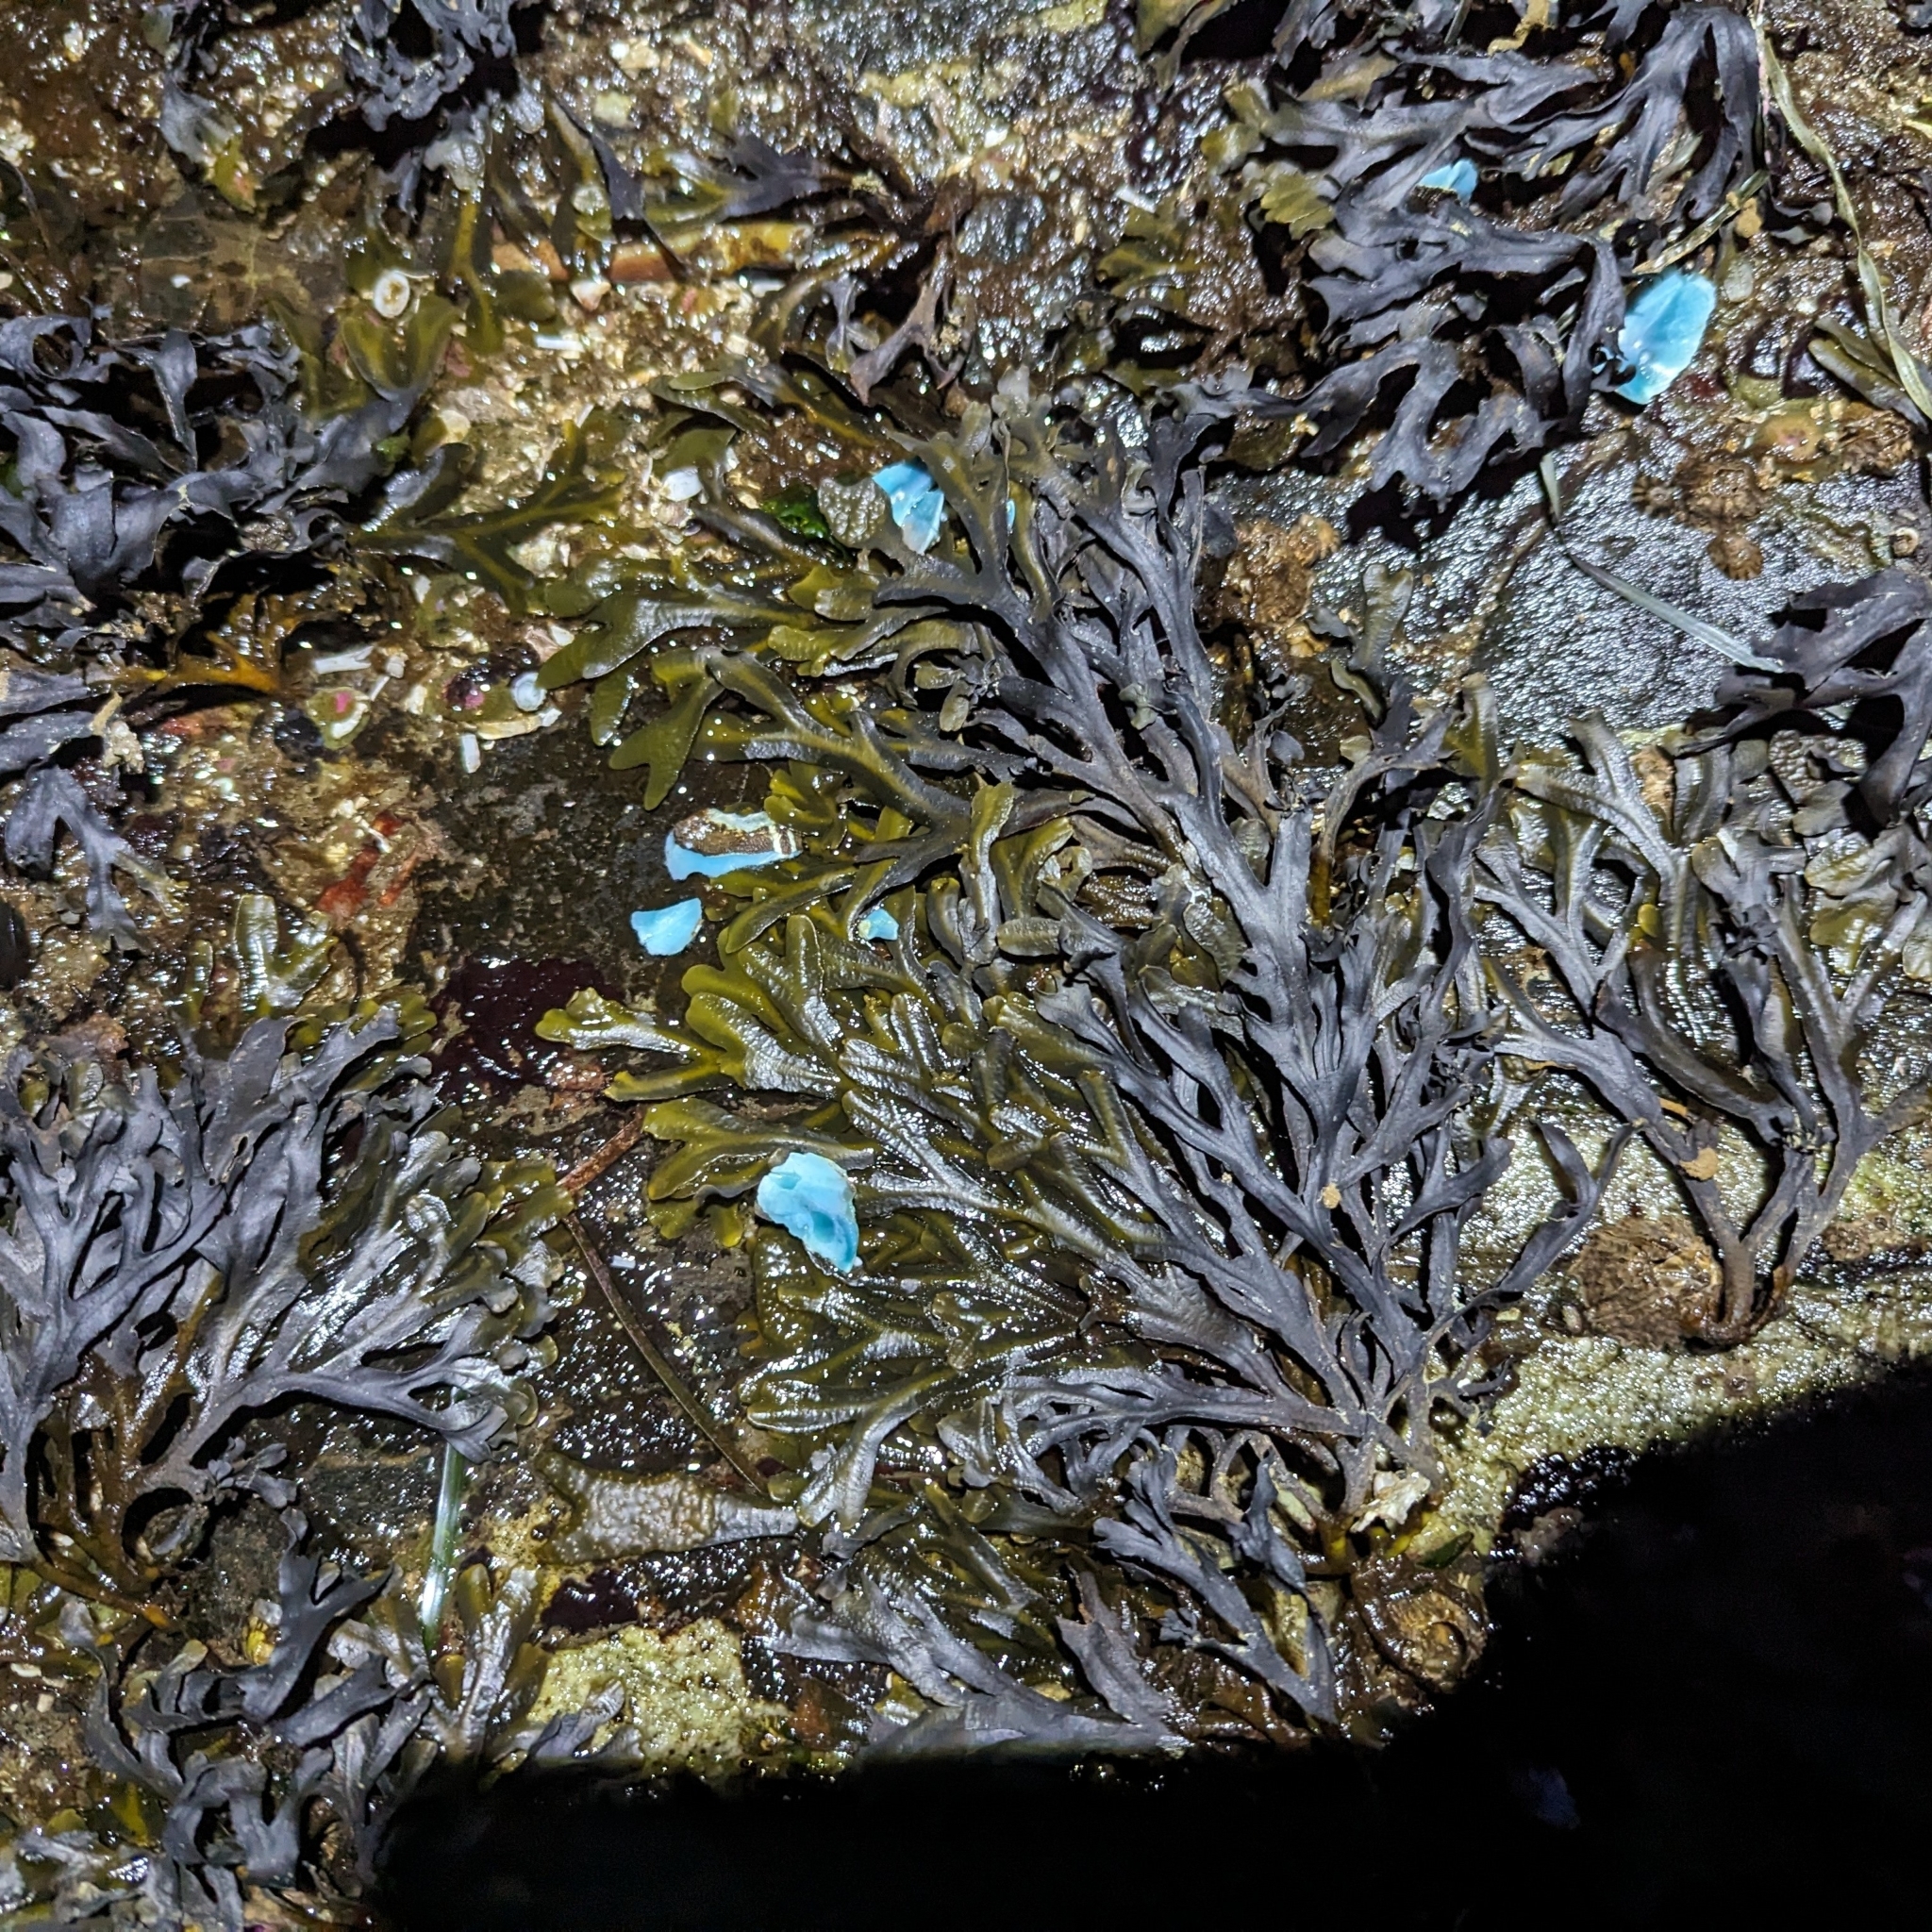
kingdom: Chromista
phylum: Ochrophyta
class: Phaeophyceae
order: Fucales
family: Fucaceae
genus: Fucus
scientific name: Fucus distichus
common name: Rockweed
